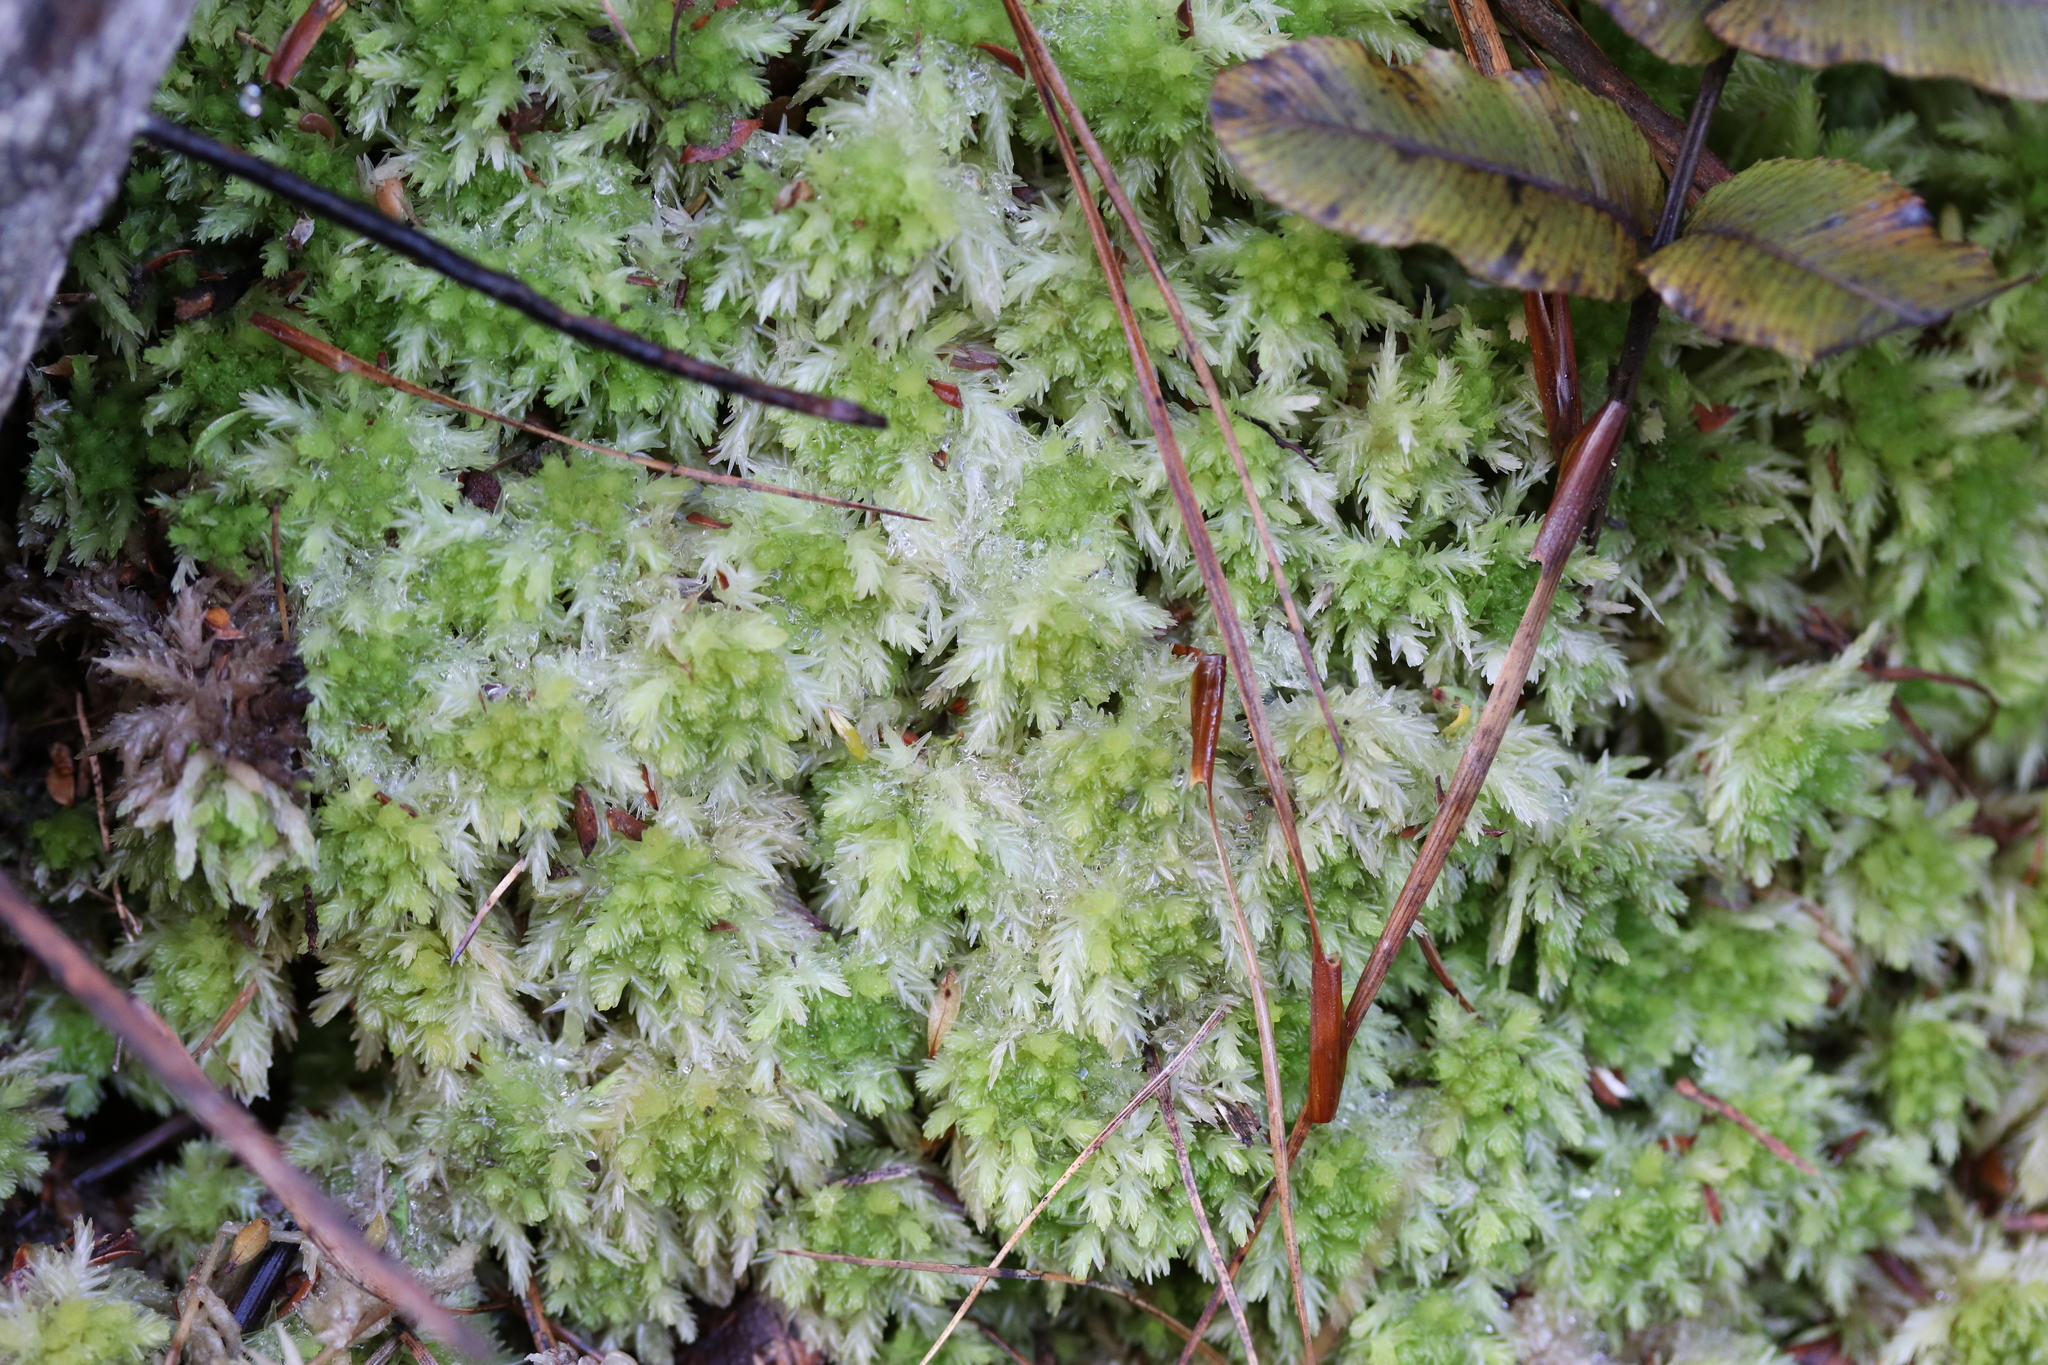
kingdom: Plantae
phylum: Bryophyta
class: Sphagnopsida
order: Sphagnales
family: Sphagnaceae
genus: Sphagnum
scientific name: Sphagnum cristatum
